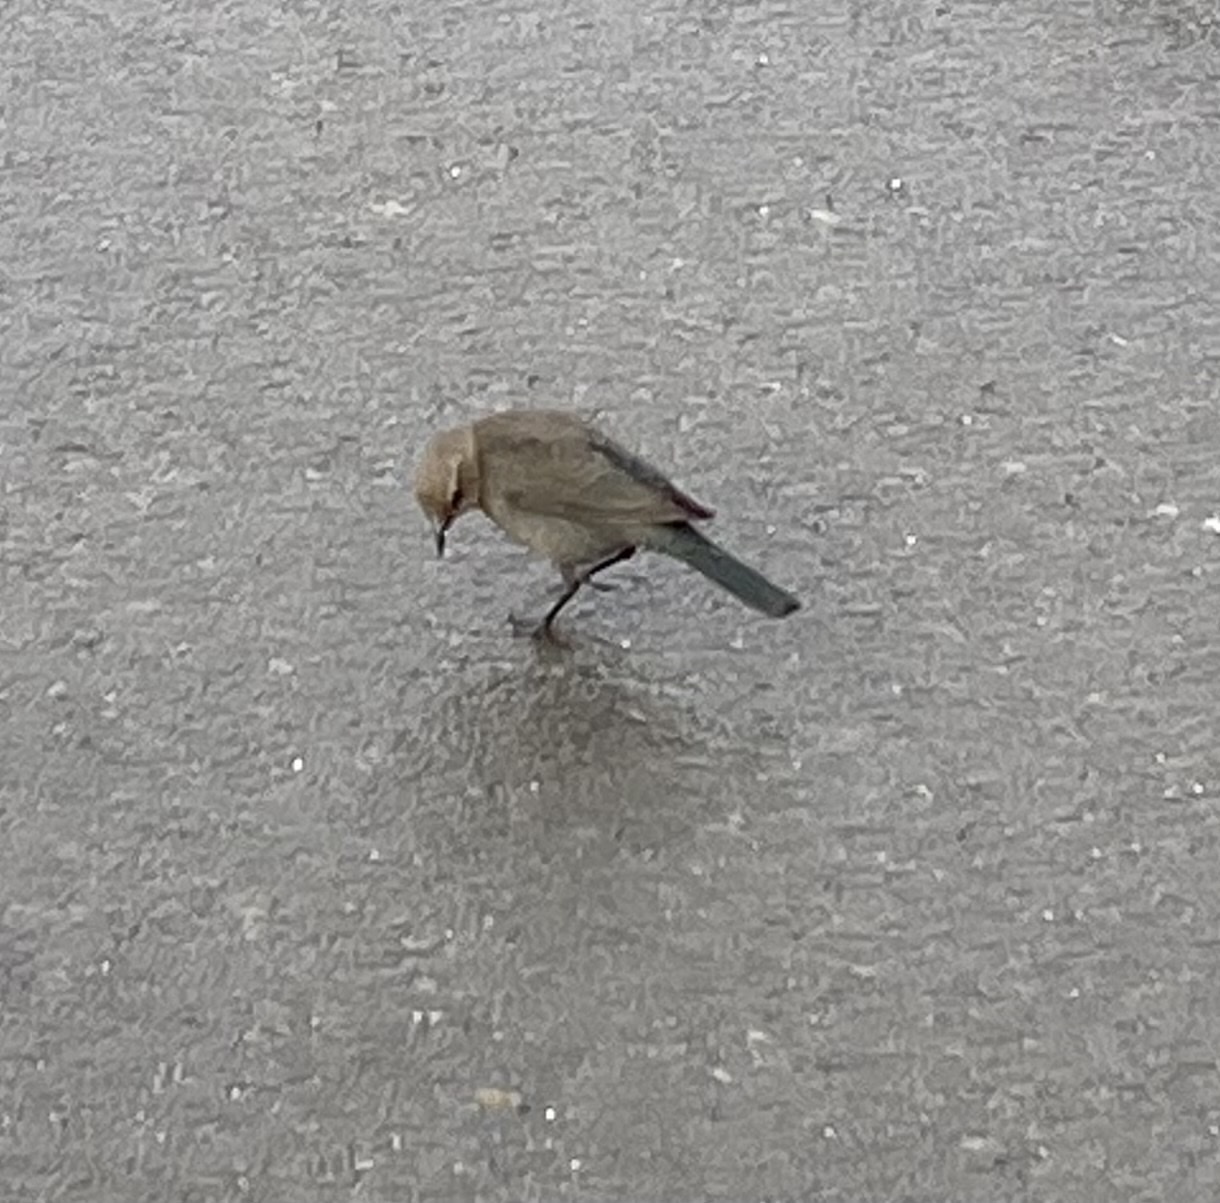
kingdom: Animalia
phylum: Chordata
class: Aves
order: Passeriformes
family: Icteridae
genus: Euphagus
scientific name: Euphagus cyanocephalus
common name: Brewer's blackbird
